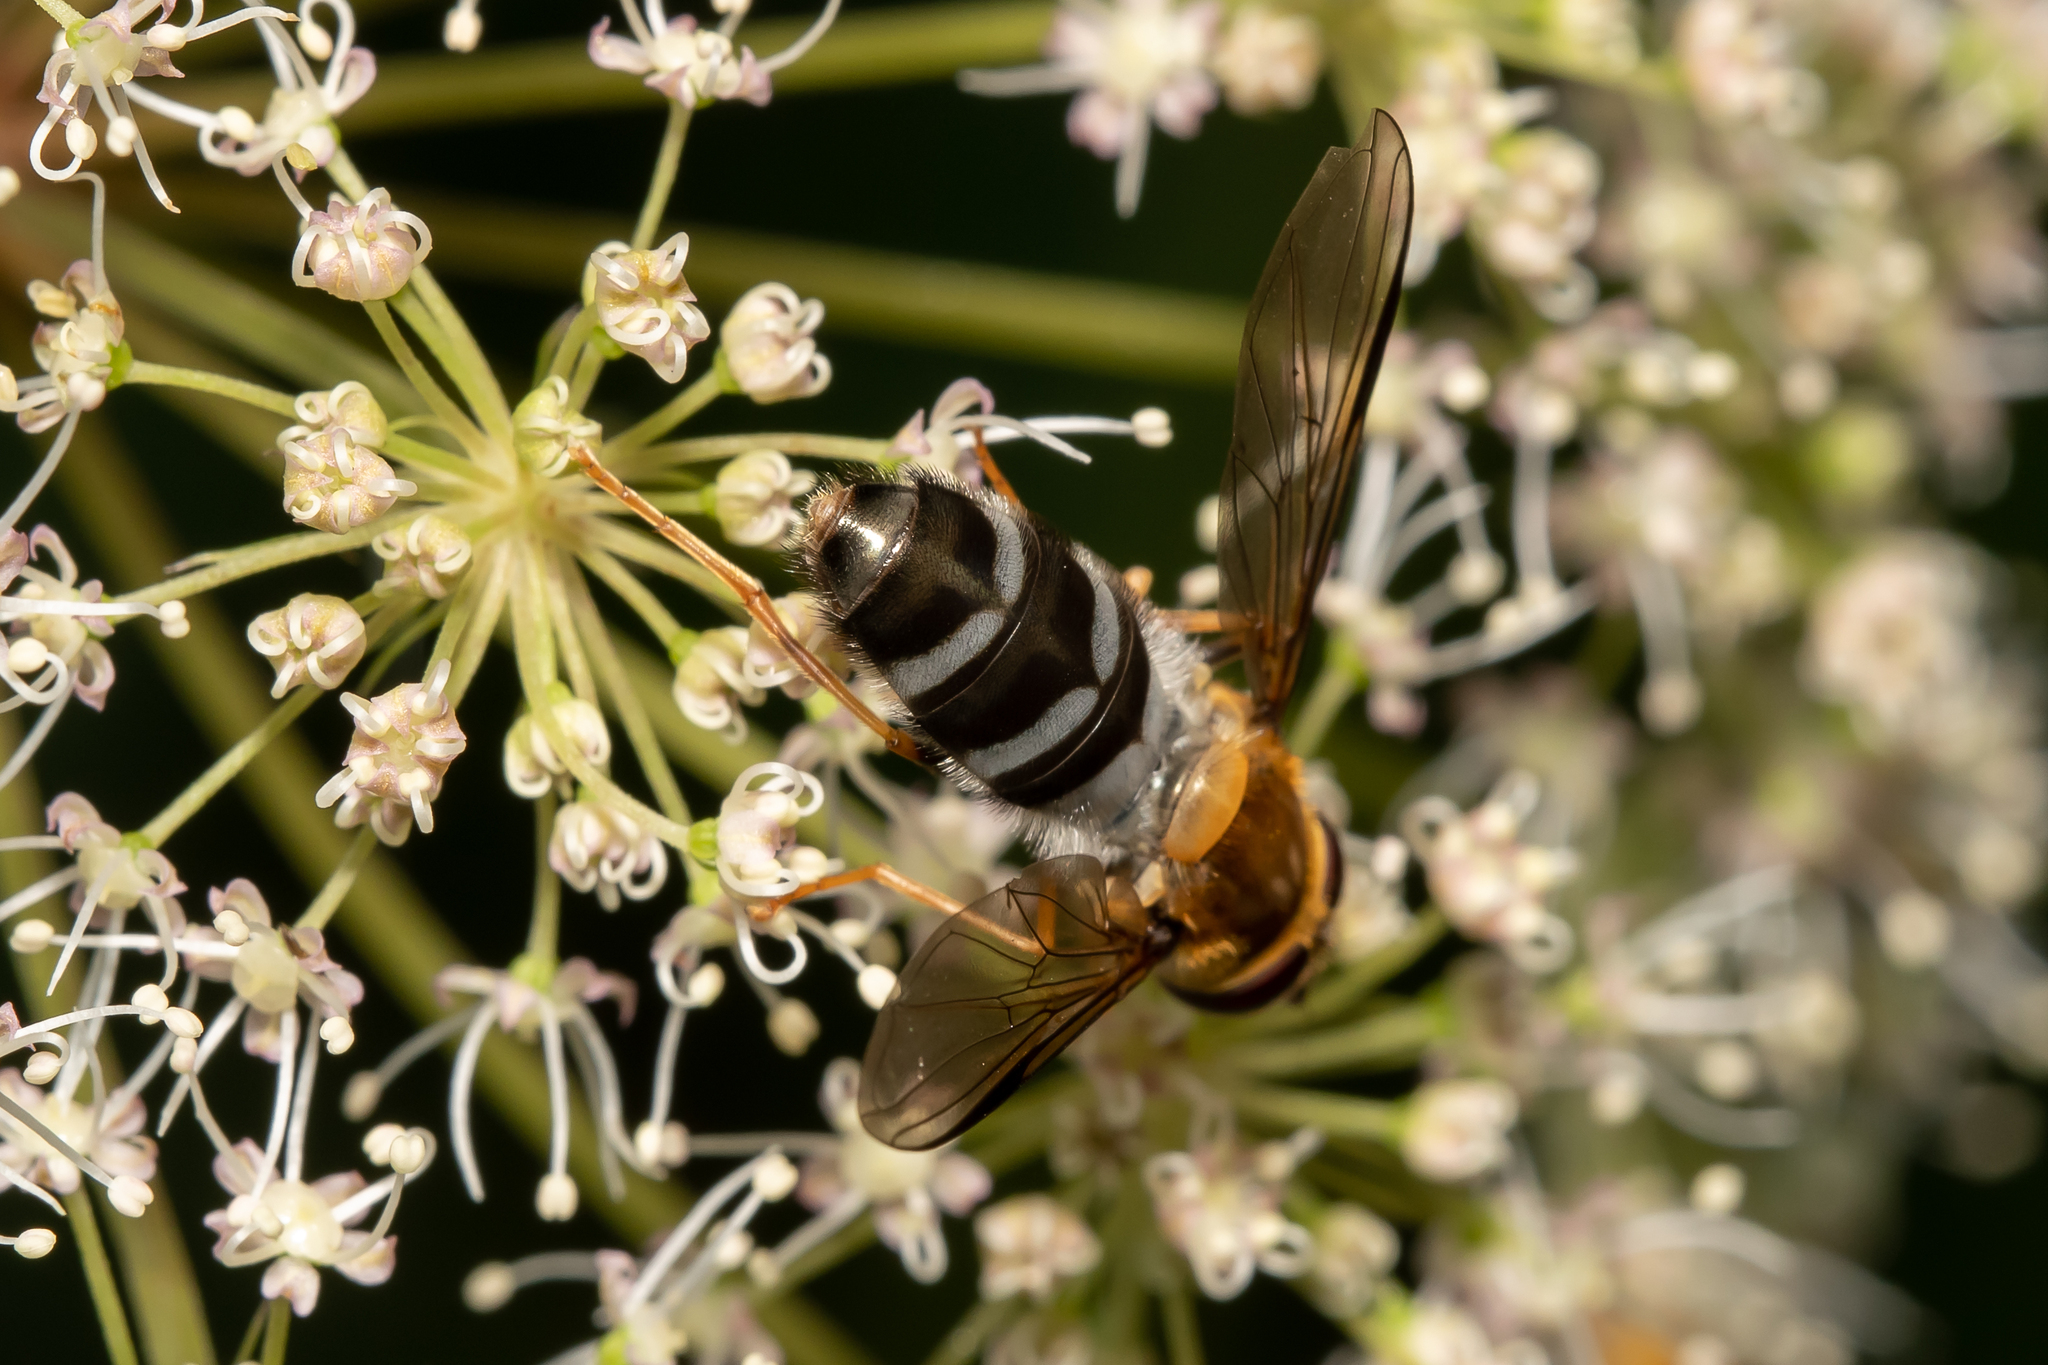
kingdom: Animalia
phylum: Arthropoda
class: Insecta
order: Diptera
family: Syrphidae
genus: Leucozona
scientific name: Leucozona glaucia
